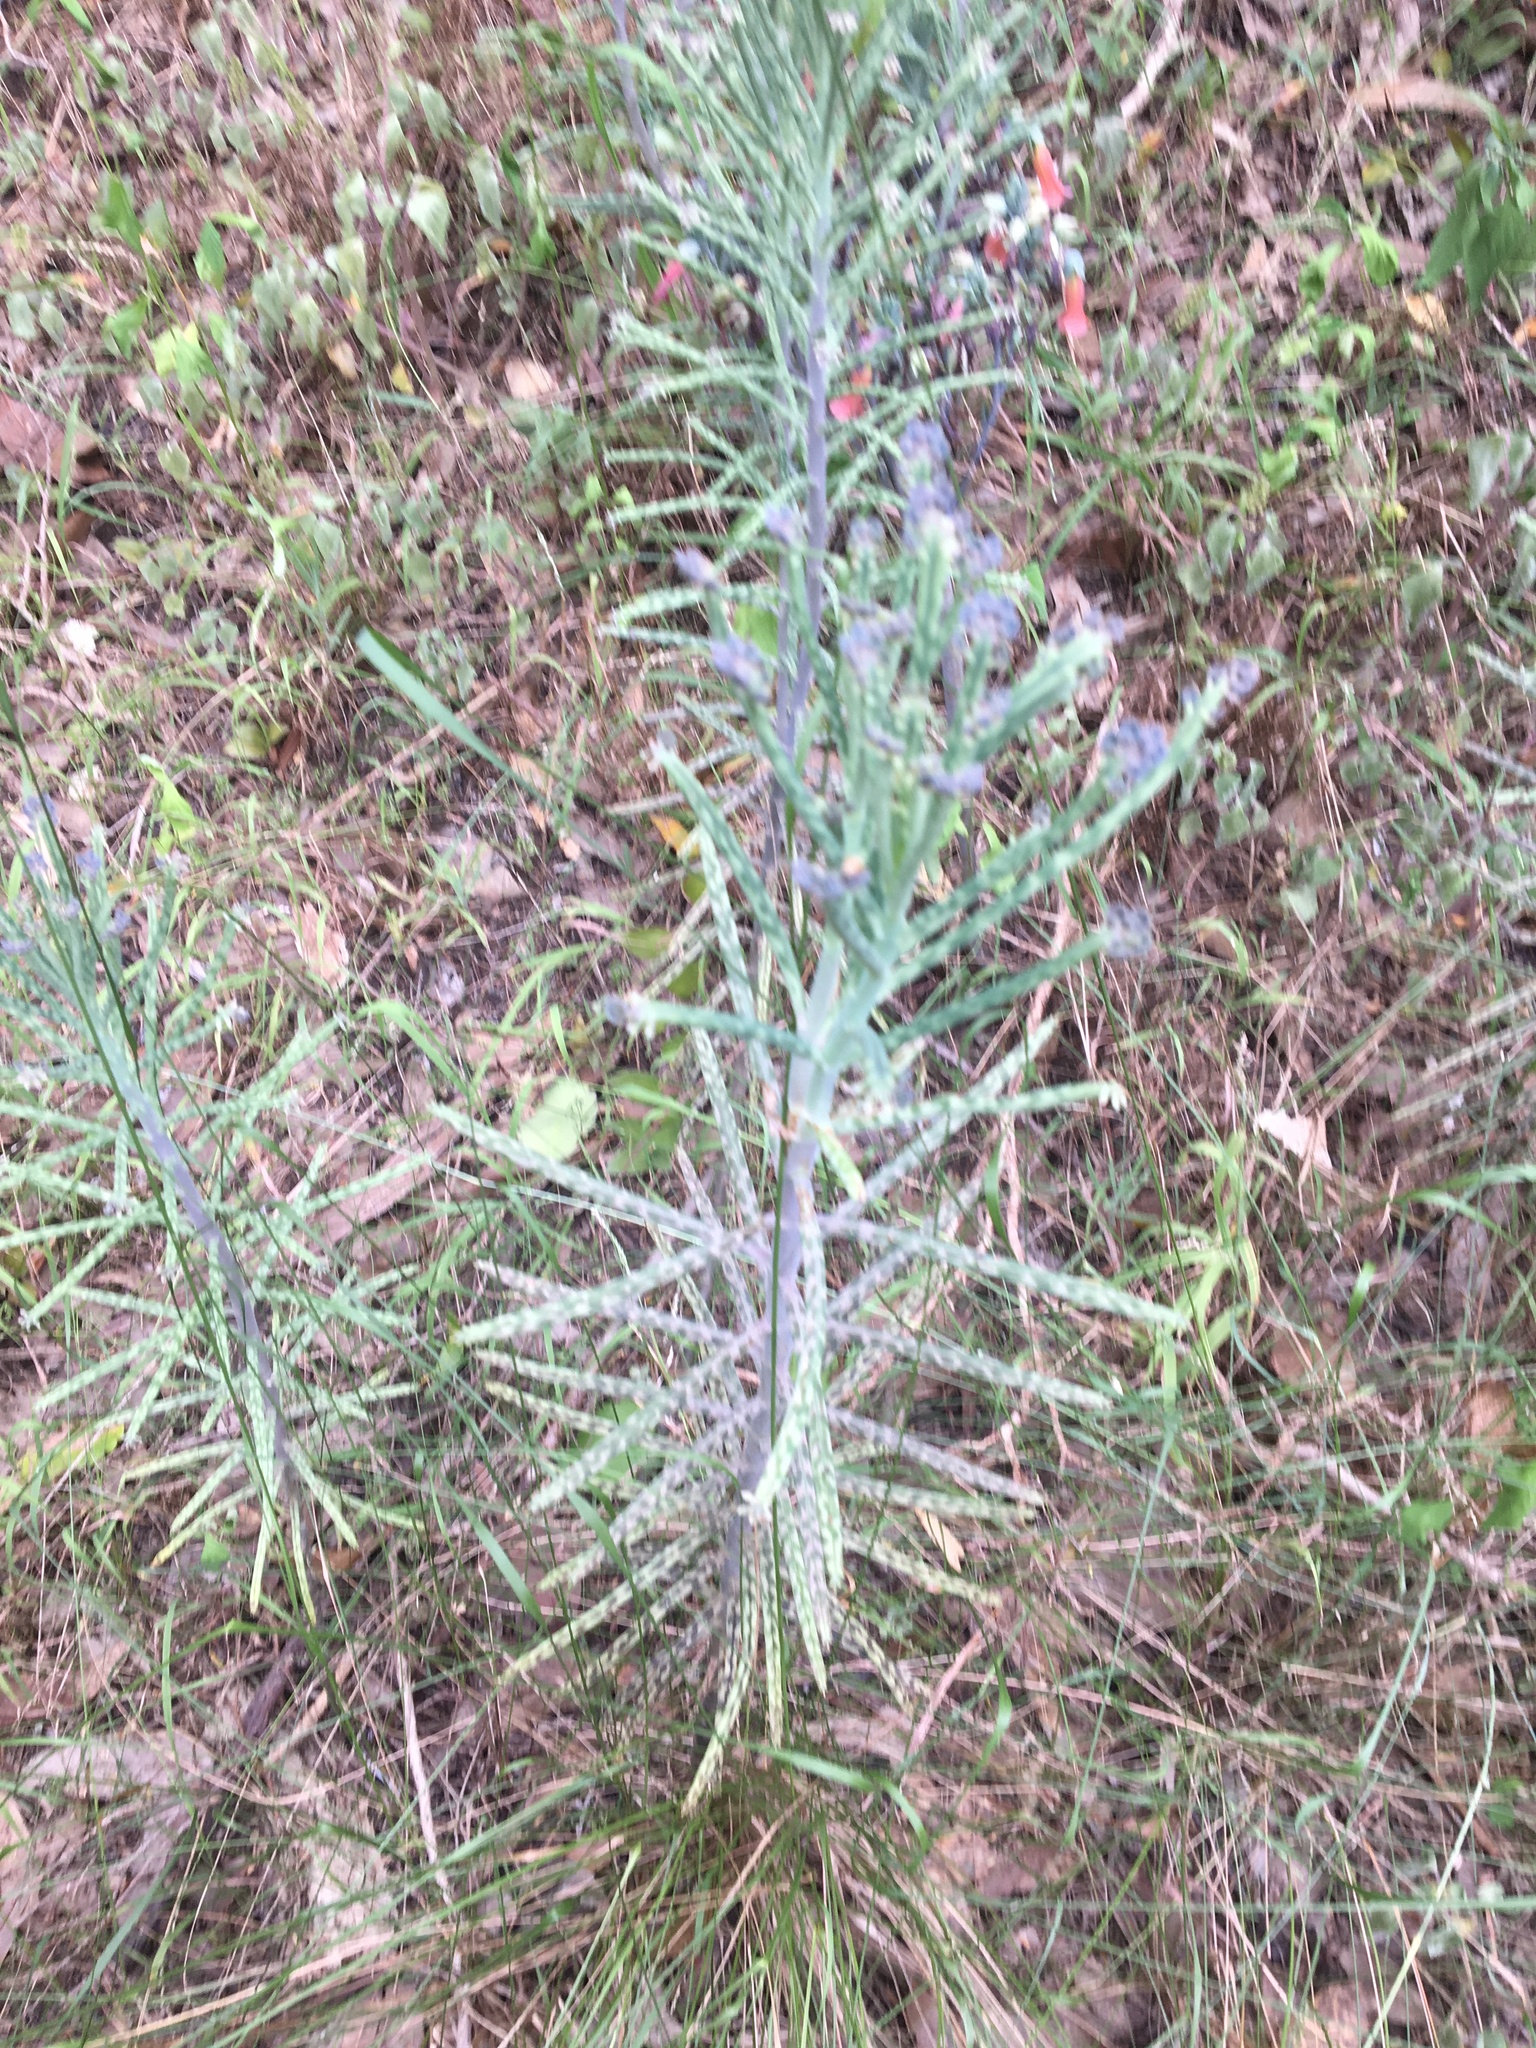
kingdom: Plantae
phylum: Tracheophyta
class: Magnoliopsida
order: Saxifragales
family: Crassulaceae
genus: Kalanchoe
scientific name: Kalanchoe delagoensis
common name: Chandelier plant
